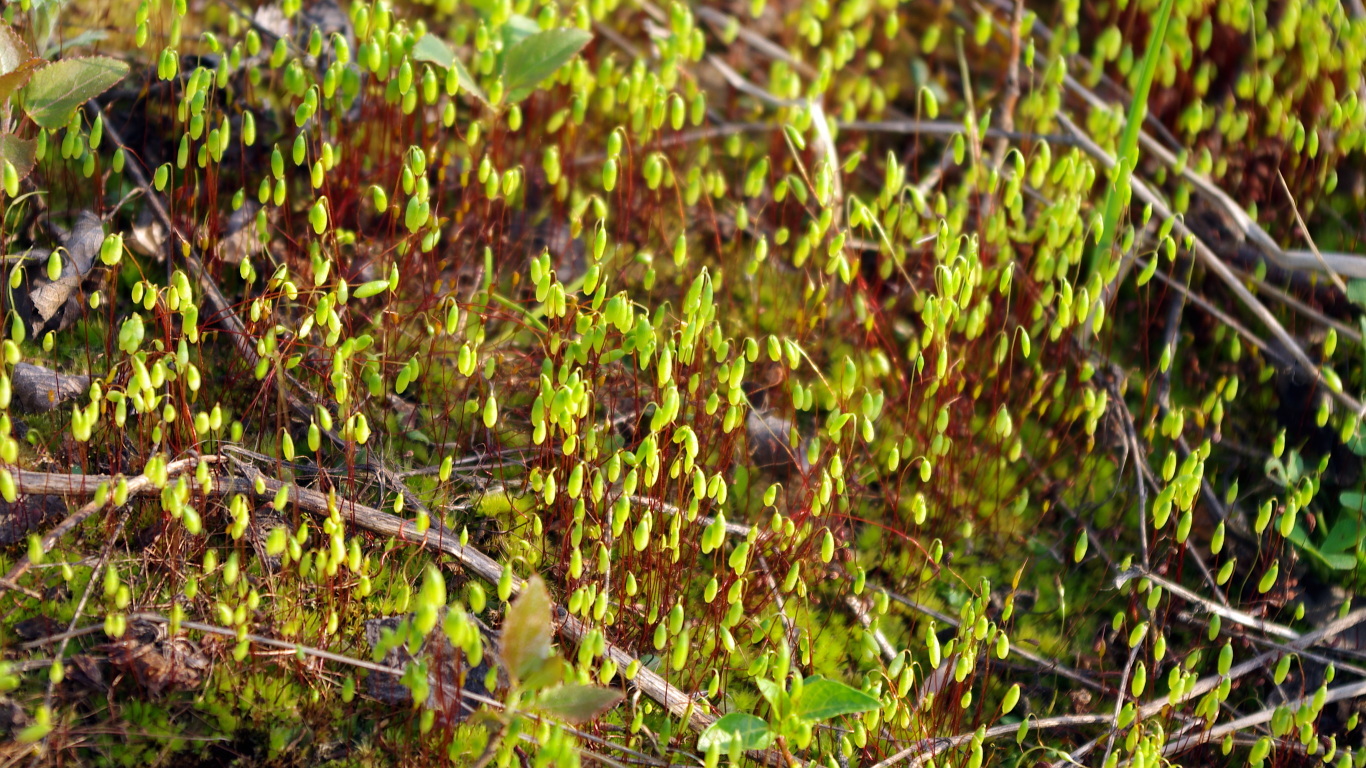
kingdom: Plantae
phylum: Bryophyta
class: Bryopsida
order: Funariales
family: Funariaceae
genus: Funaria
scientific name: Funaria hygrometrica
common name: Common cord moss
